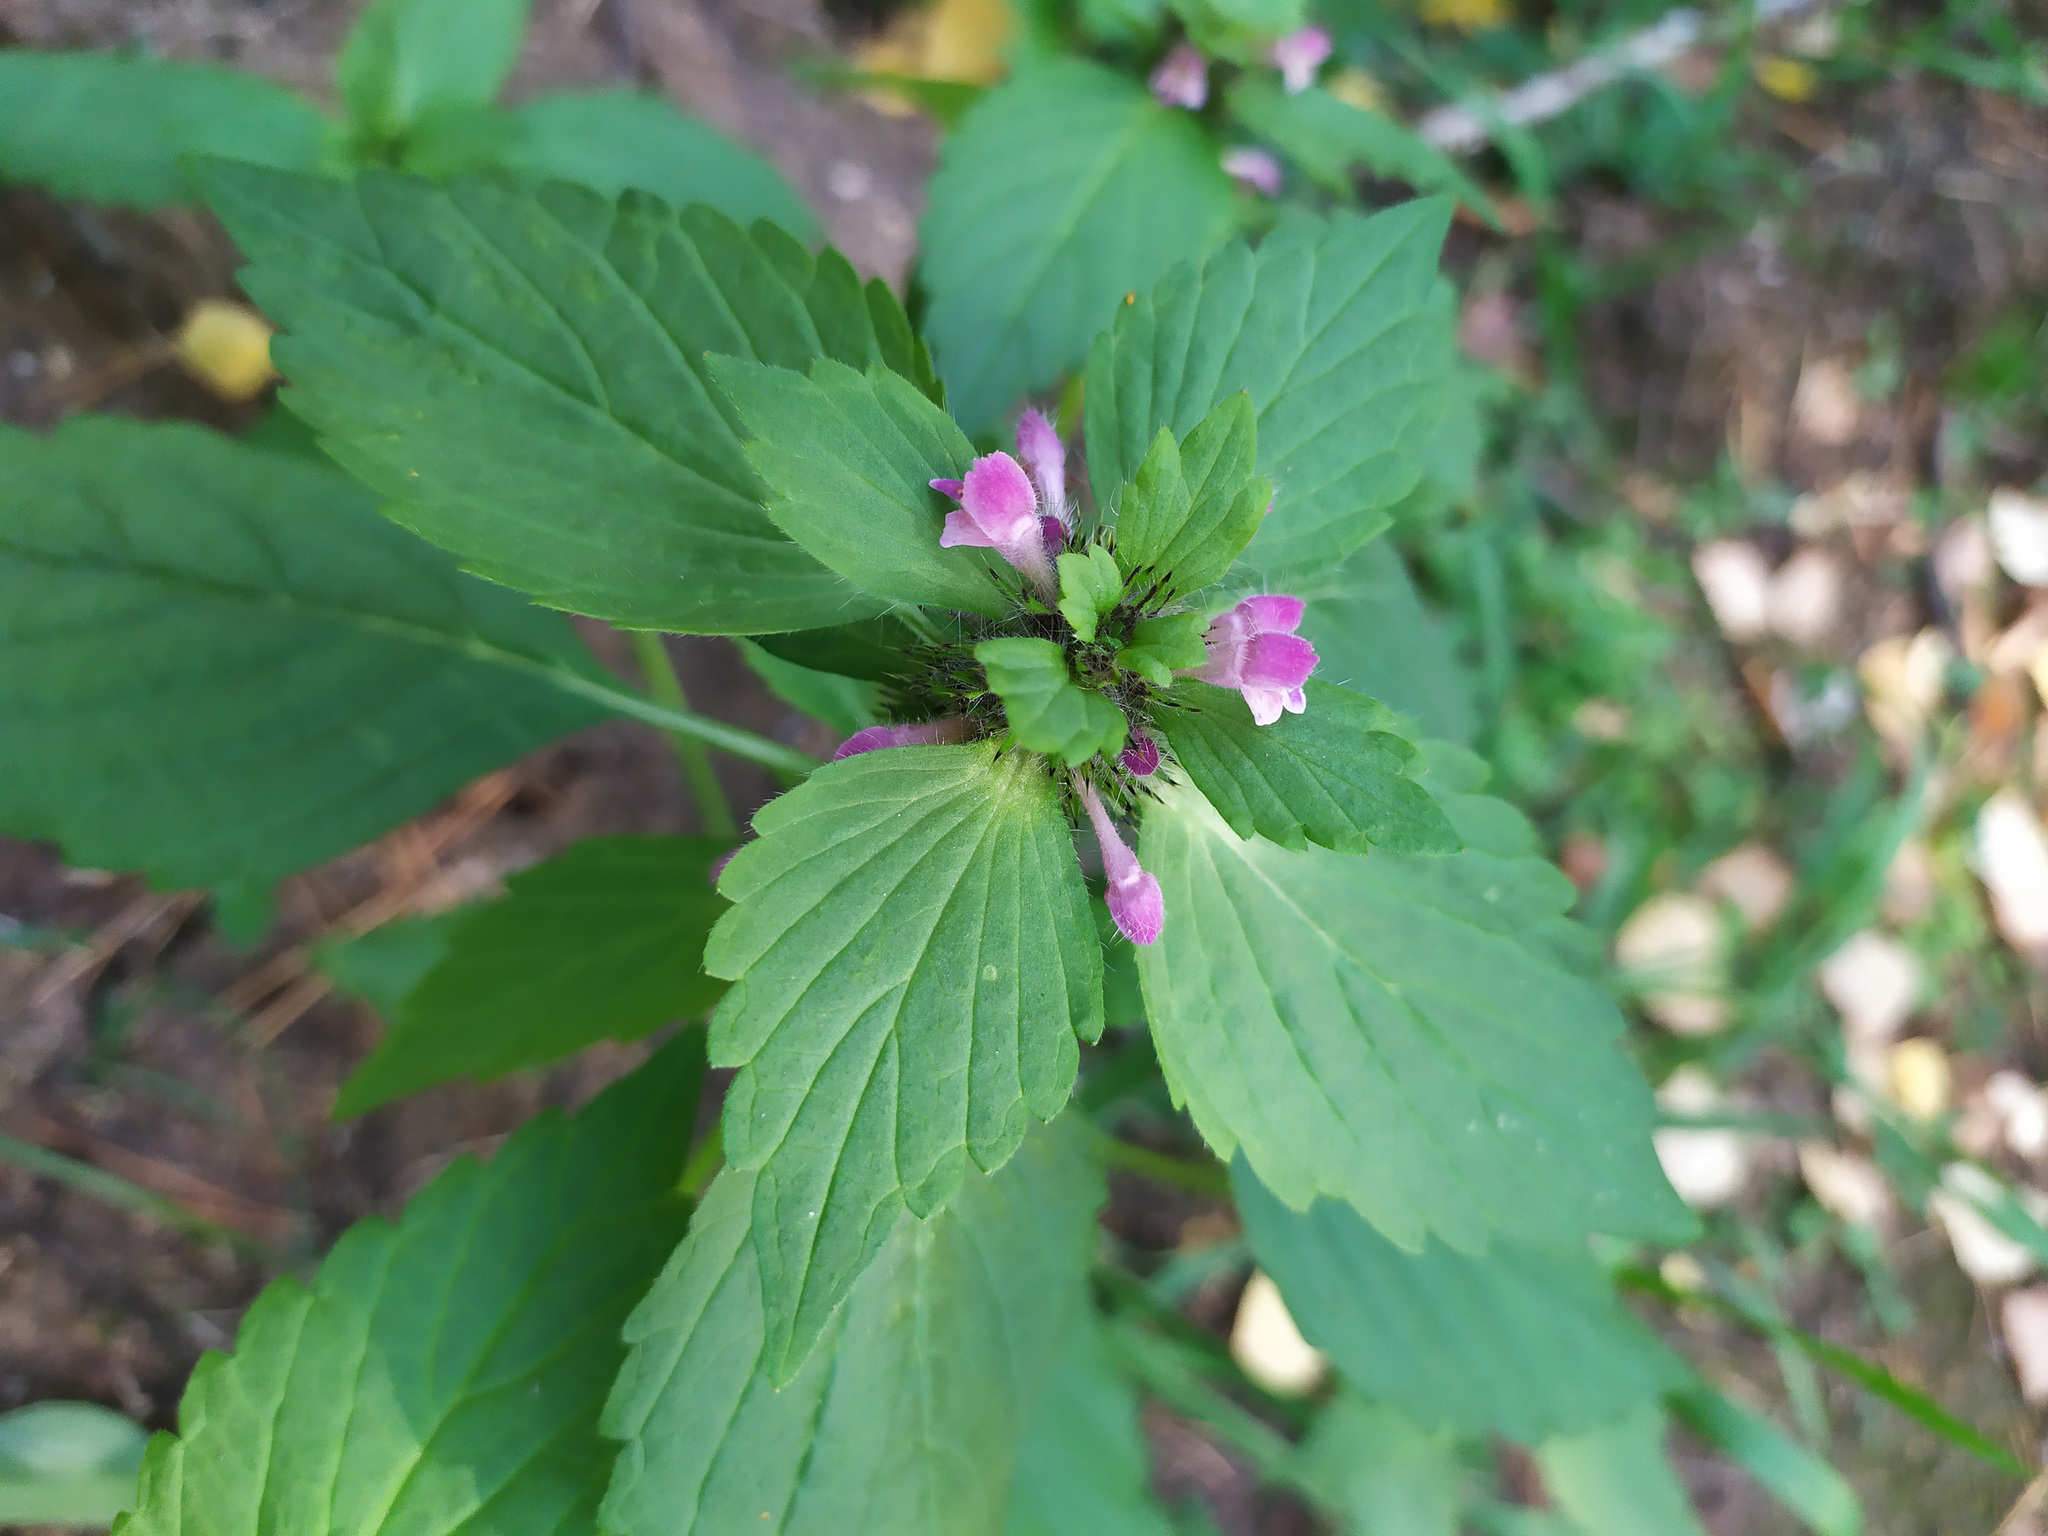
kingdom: Plantae
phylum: Tracheophyta
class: Magnoliopsida
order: Lamiales
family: Lamiaceae
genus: Galeopsis
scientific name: Galeopsis bifida
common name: Bifid hemp-nettle
